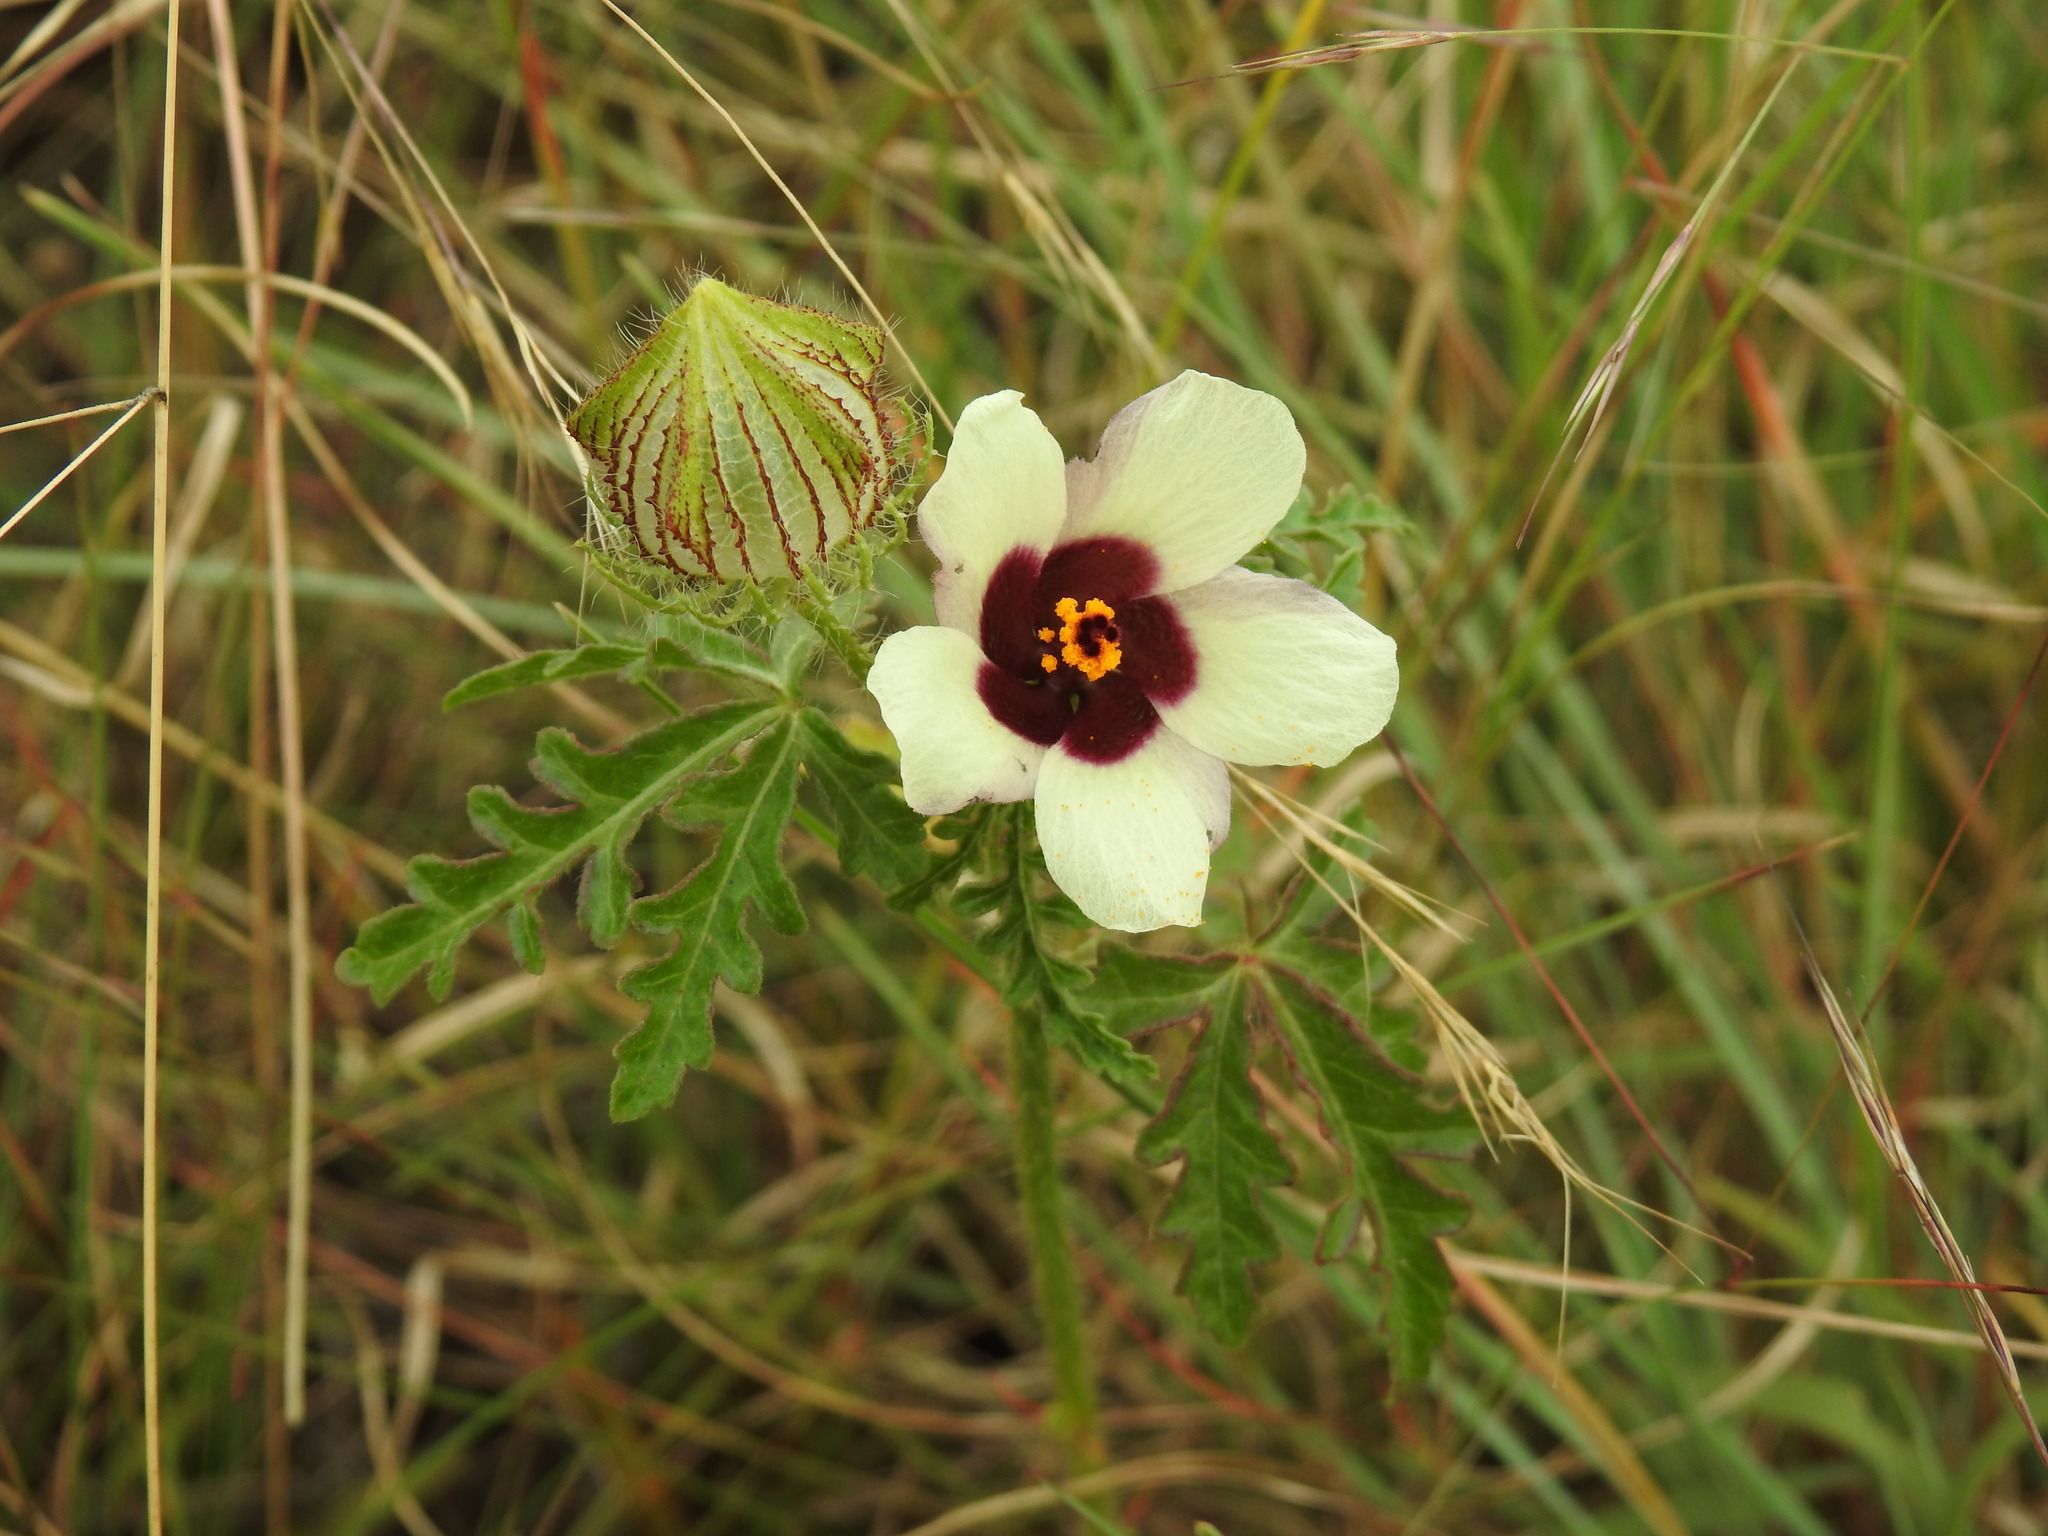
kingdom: Plantae
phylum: Tracheophyta
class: Magnoliopsida
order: Malvales
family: Malvaceae
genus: Hibiscus
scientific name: Hibiscus trionum
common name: Bladder ketmia
